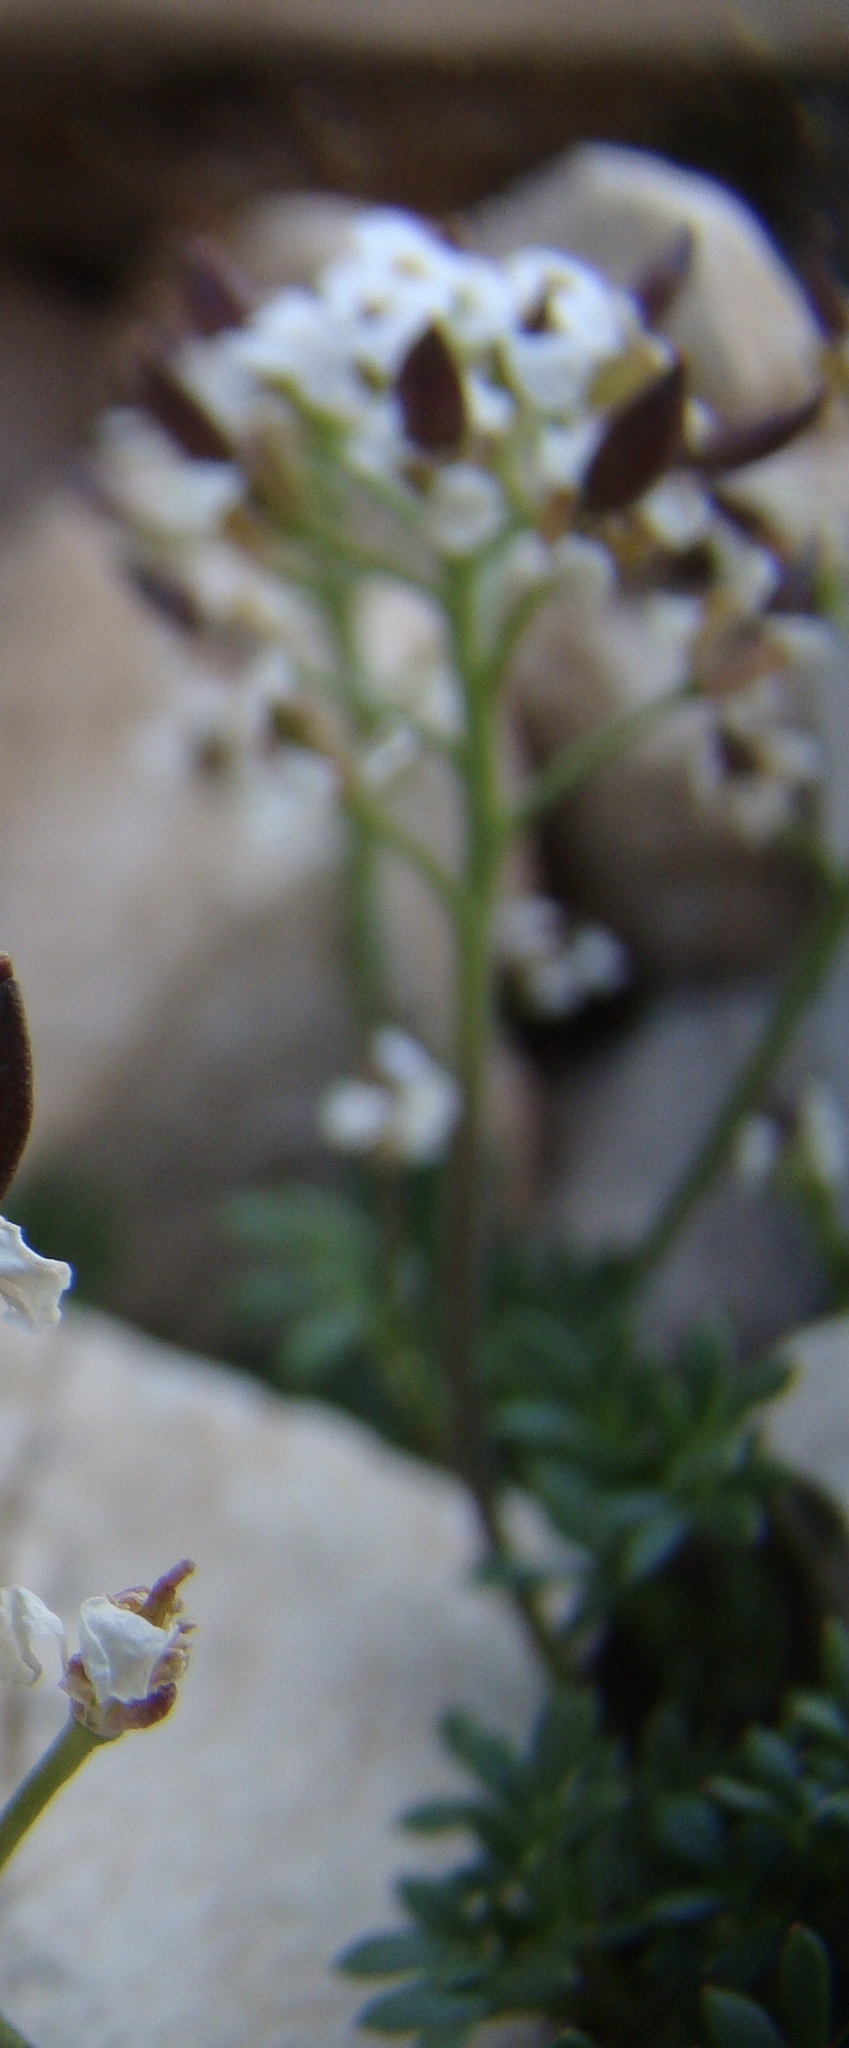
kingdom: Plantae
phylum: Tracheophyta
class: Magnoliopsida
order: Brassicales
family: Brassicaceae
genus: Hornungia
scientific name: Hornungia alpina
